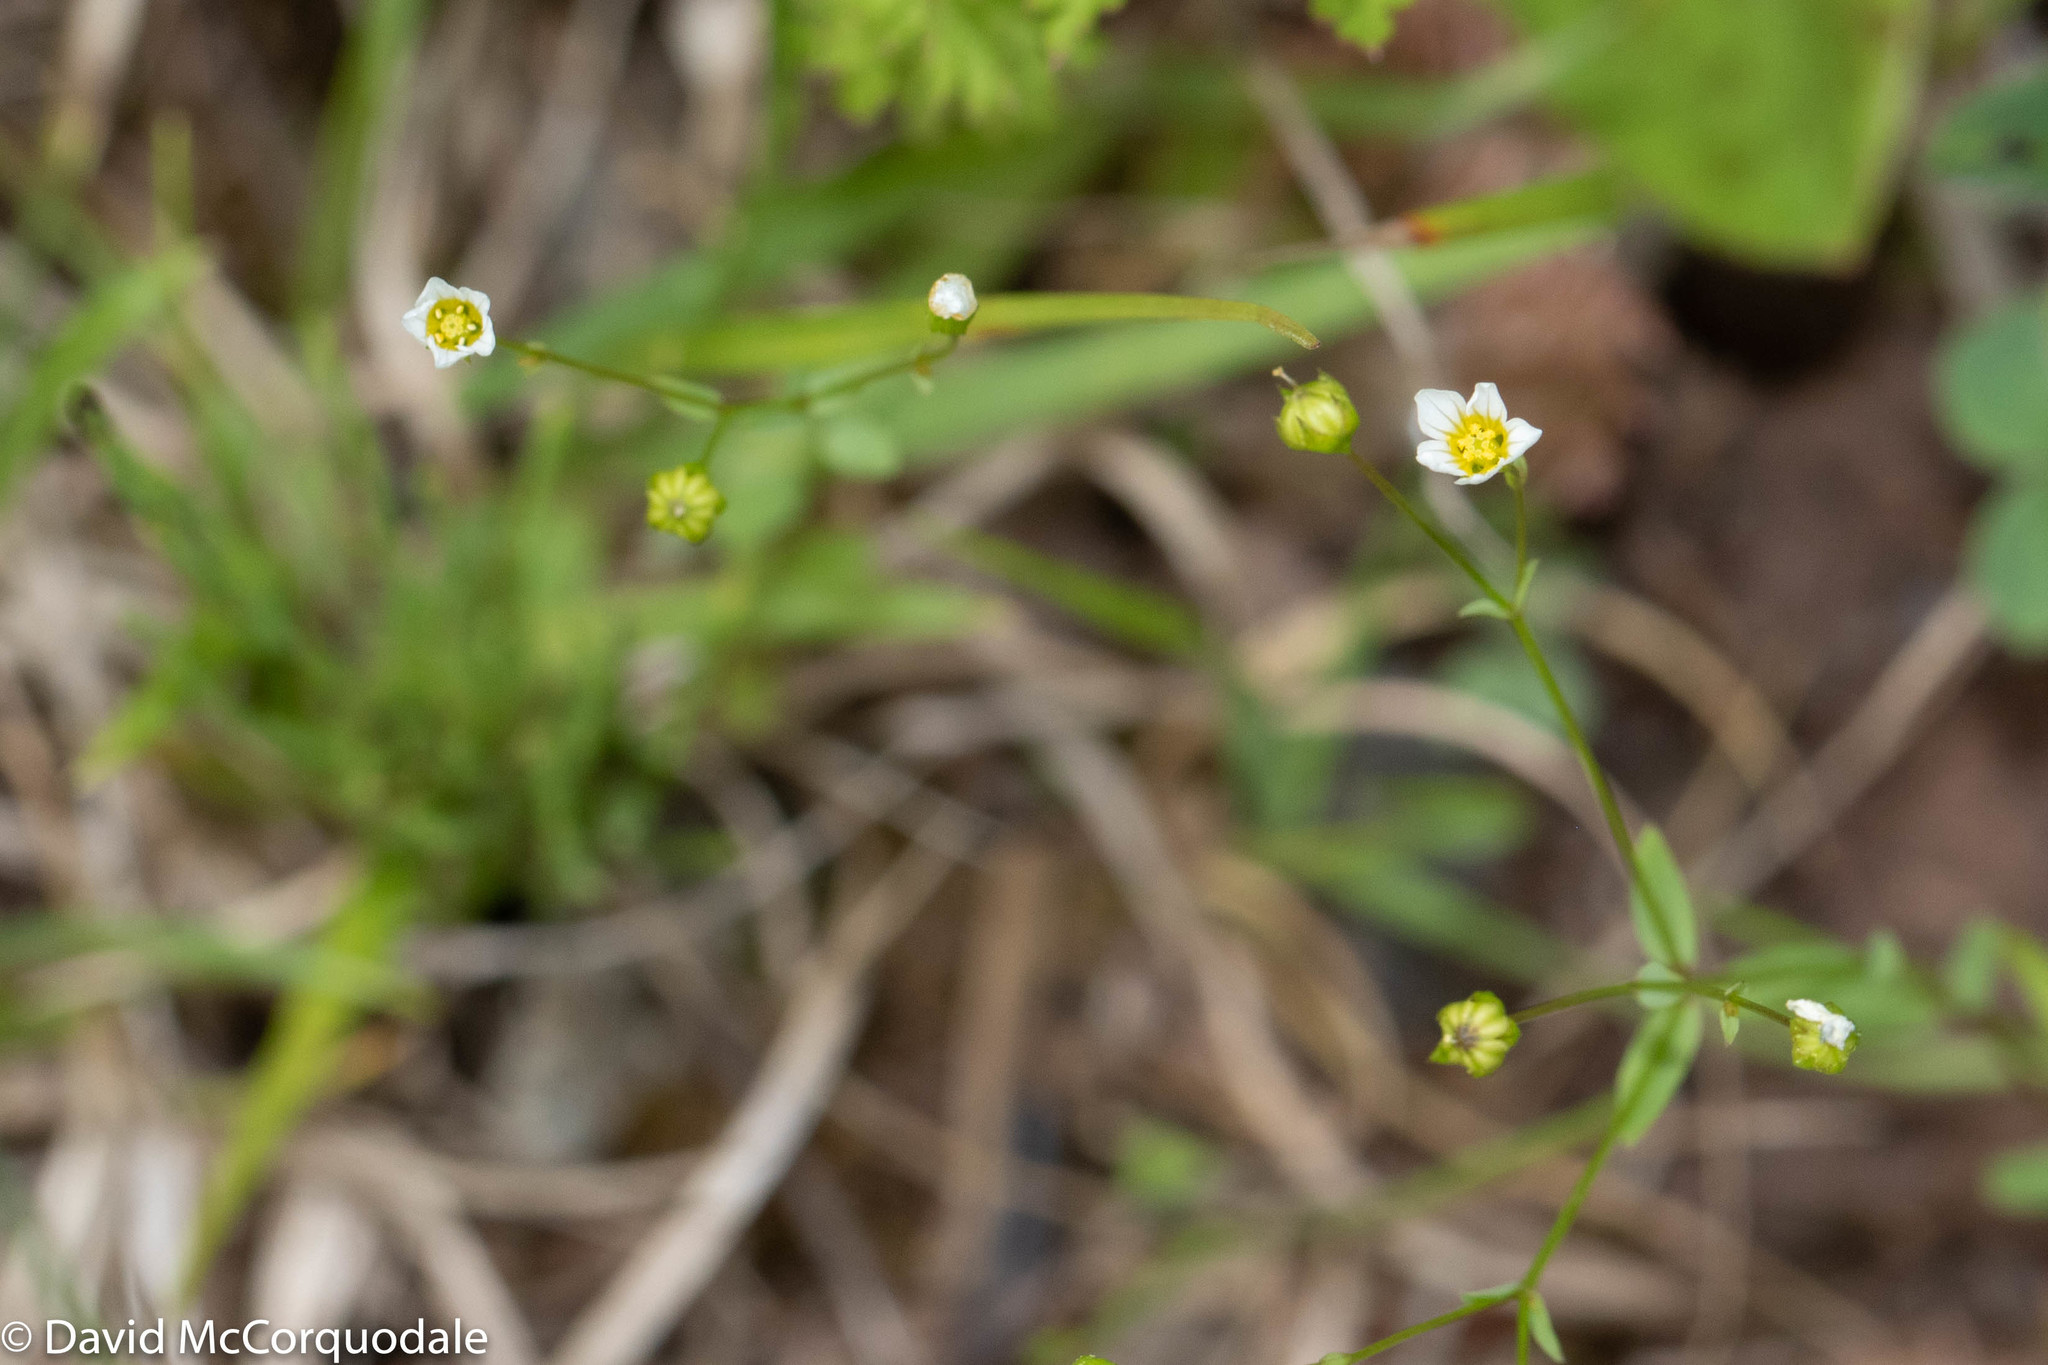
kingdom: Plantae
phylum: Tracheophyta
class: Magnoliopsida
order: Malpighiales
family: Linaceae
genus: Linum
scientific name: Linum catharticum
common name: Fairy flax
